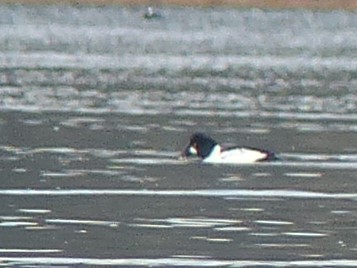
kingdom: Animalia
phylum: Chordata
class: Aves
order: Anseriformes
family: Anatidae
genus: Bucephala
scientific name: Bucephala clangula
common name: Common goldeneye
